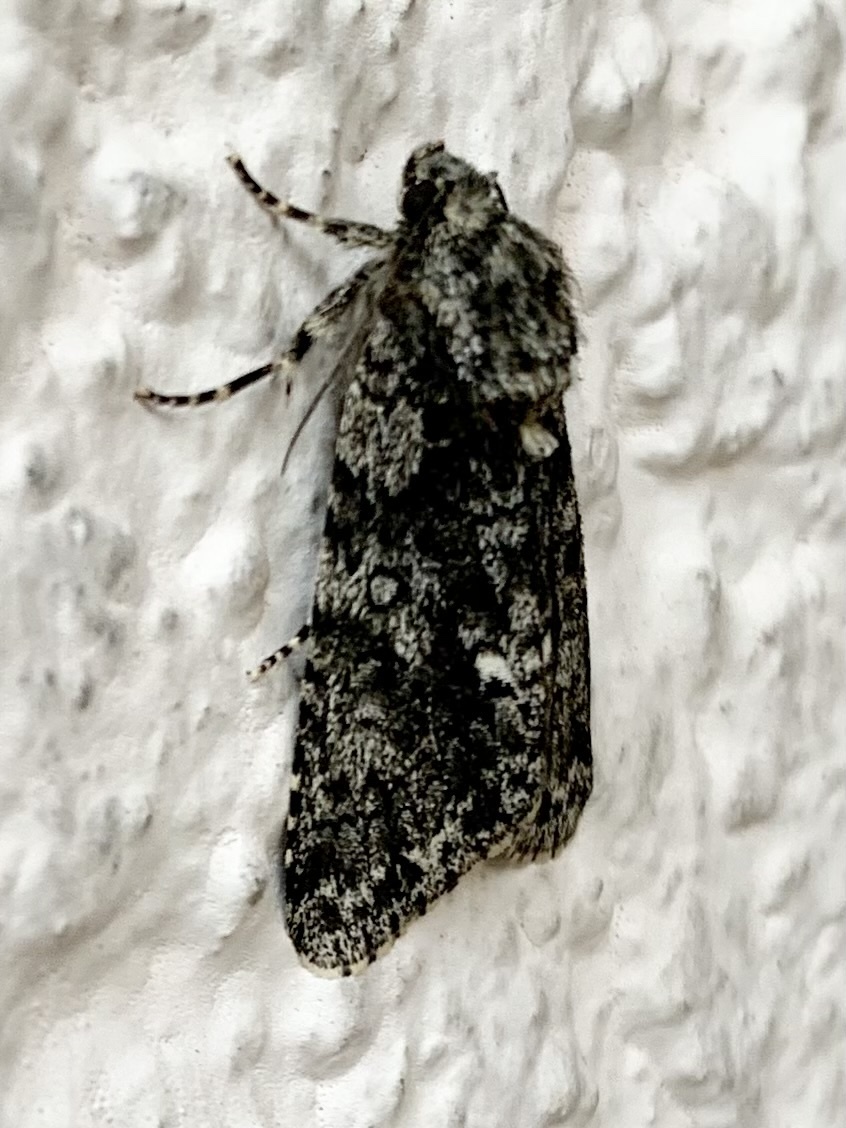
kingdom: Animalia
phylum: Arthropoda
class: Insecta
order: Lepidoptera
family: Noctuidae
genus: Acronicta
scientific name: Acronicta rumicis
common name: Knot grass
